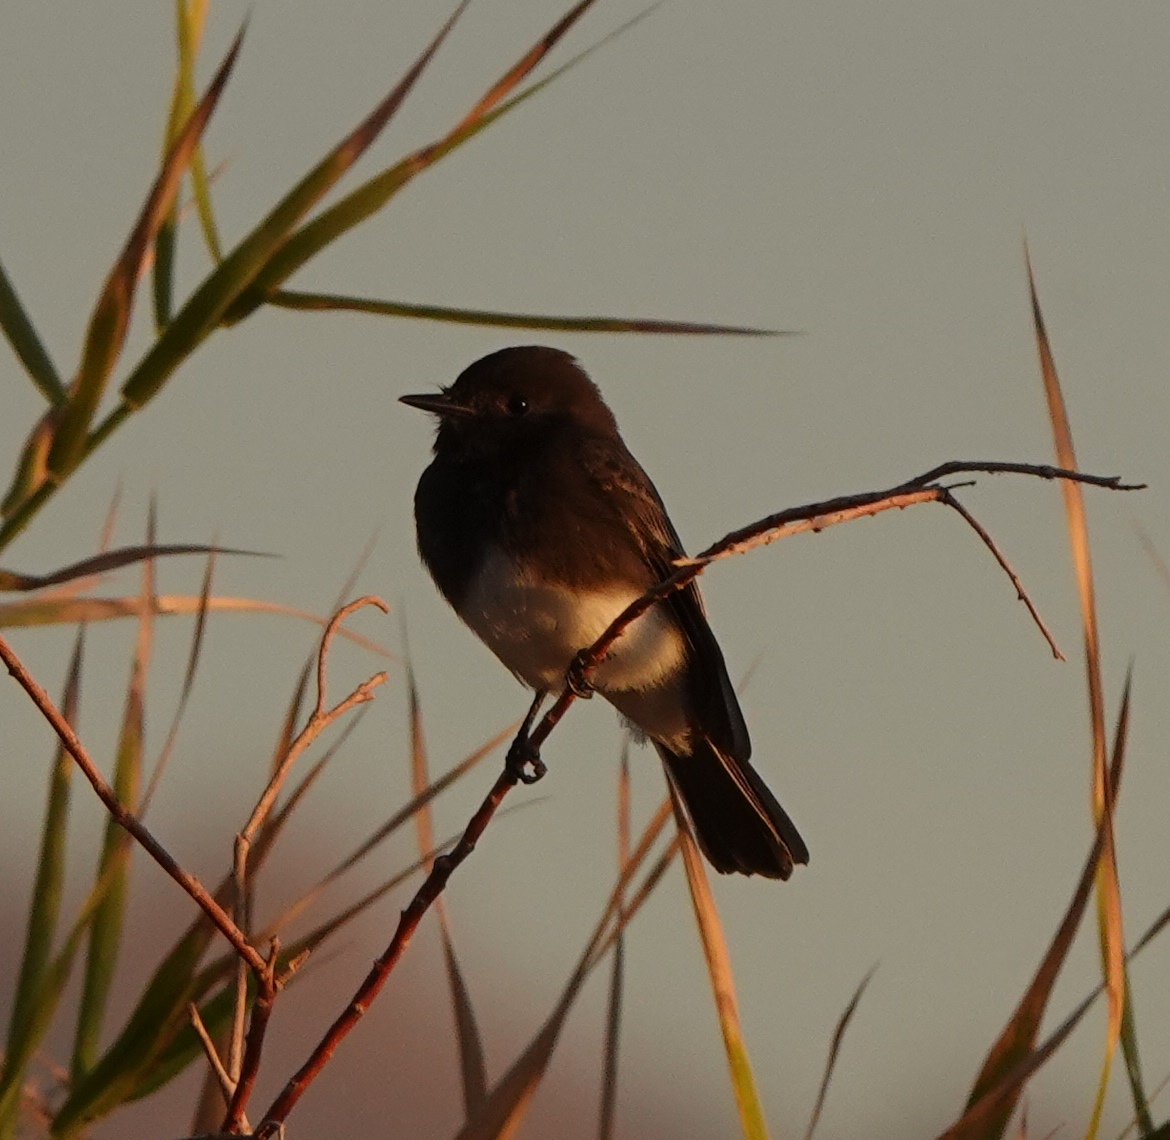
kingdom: Animalia
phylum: Chordata
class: Aves
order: Passeriformes
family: Tyrannidae
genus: Sayornis
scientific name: Sayornis nigricans
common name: Black phoebe
